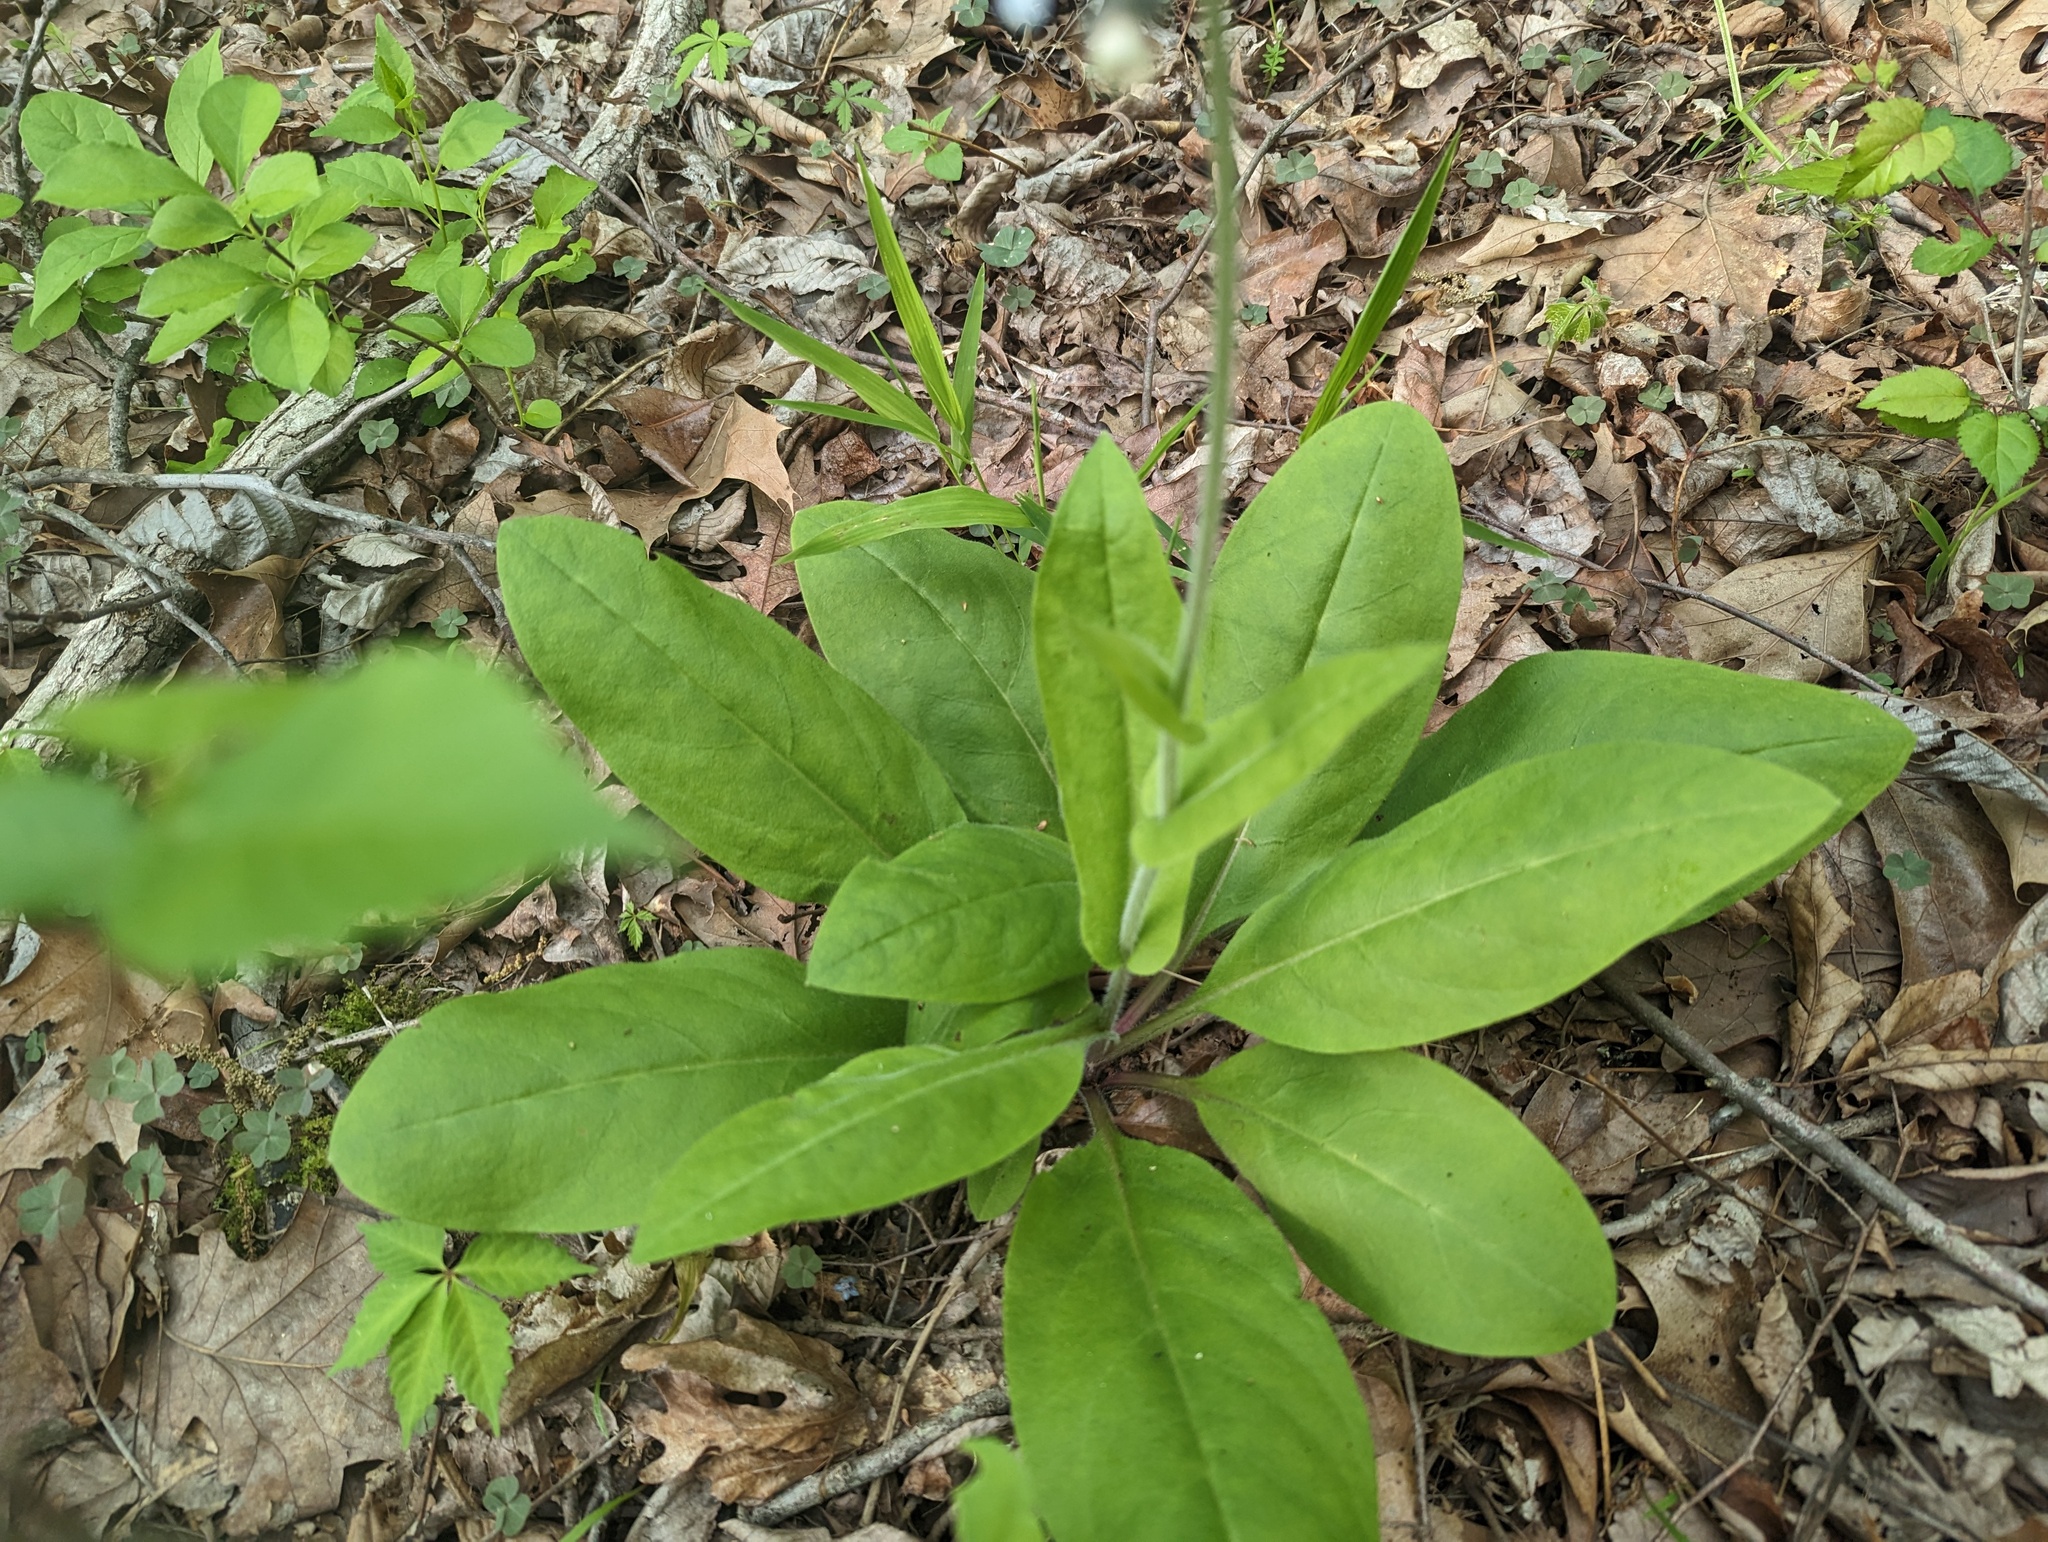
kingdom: Plantae
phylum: Tracheophyta
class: Magnoliopsida
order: Boraginales
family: Boraginaceae
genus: Andersonglossum
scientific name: Andersonglossum virginianum
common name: Wild comfrey
